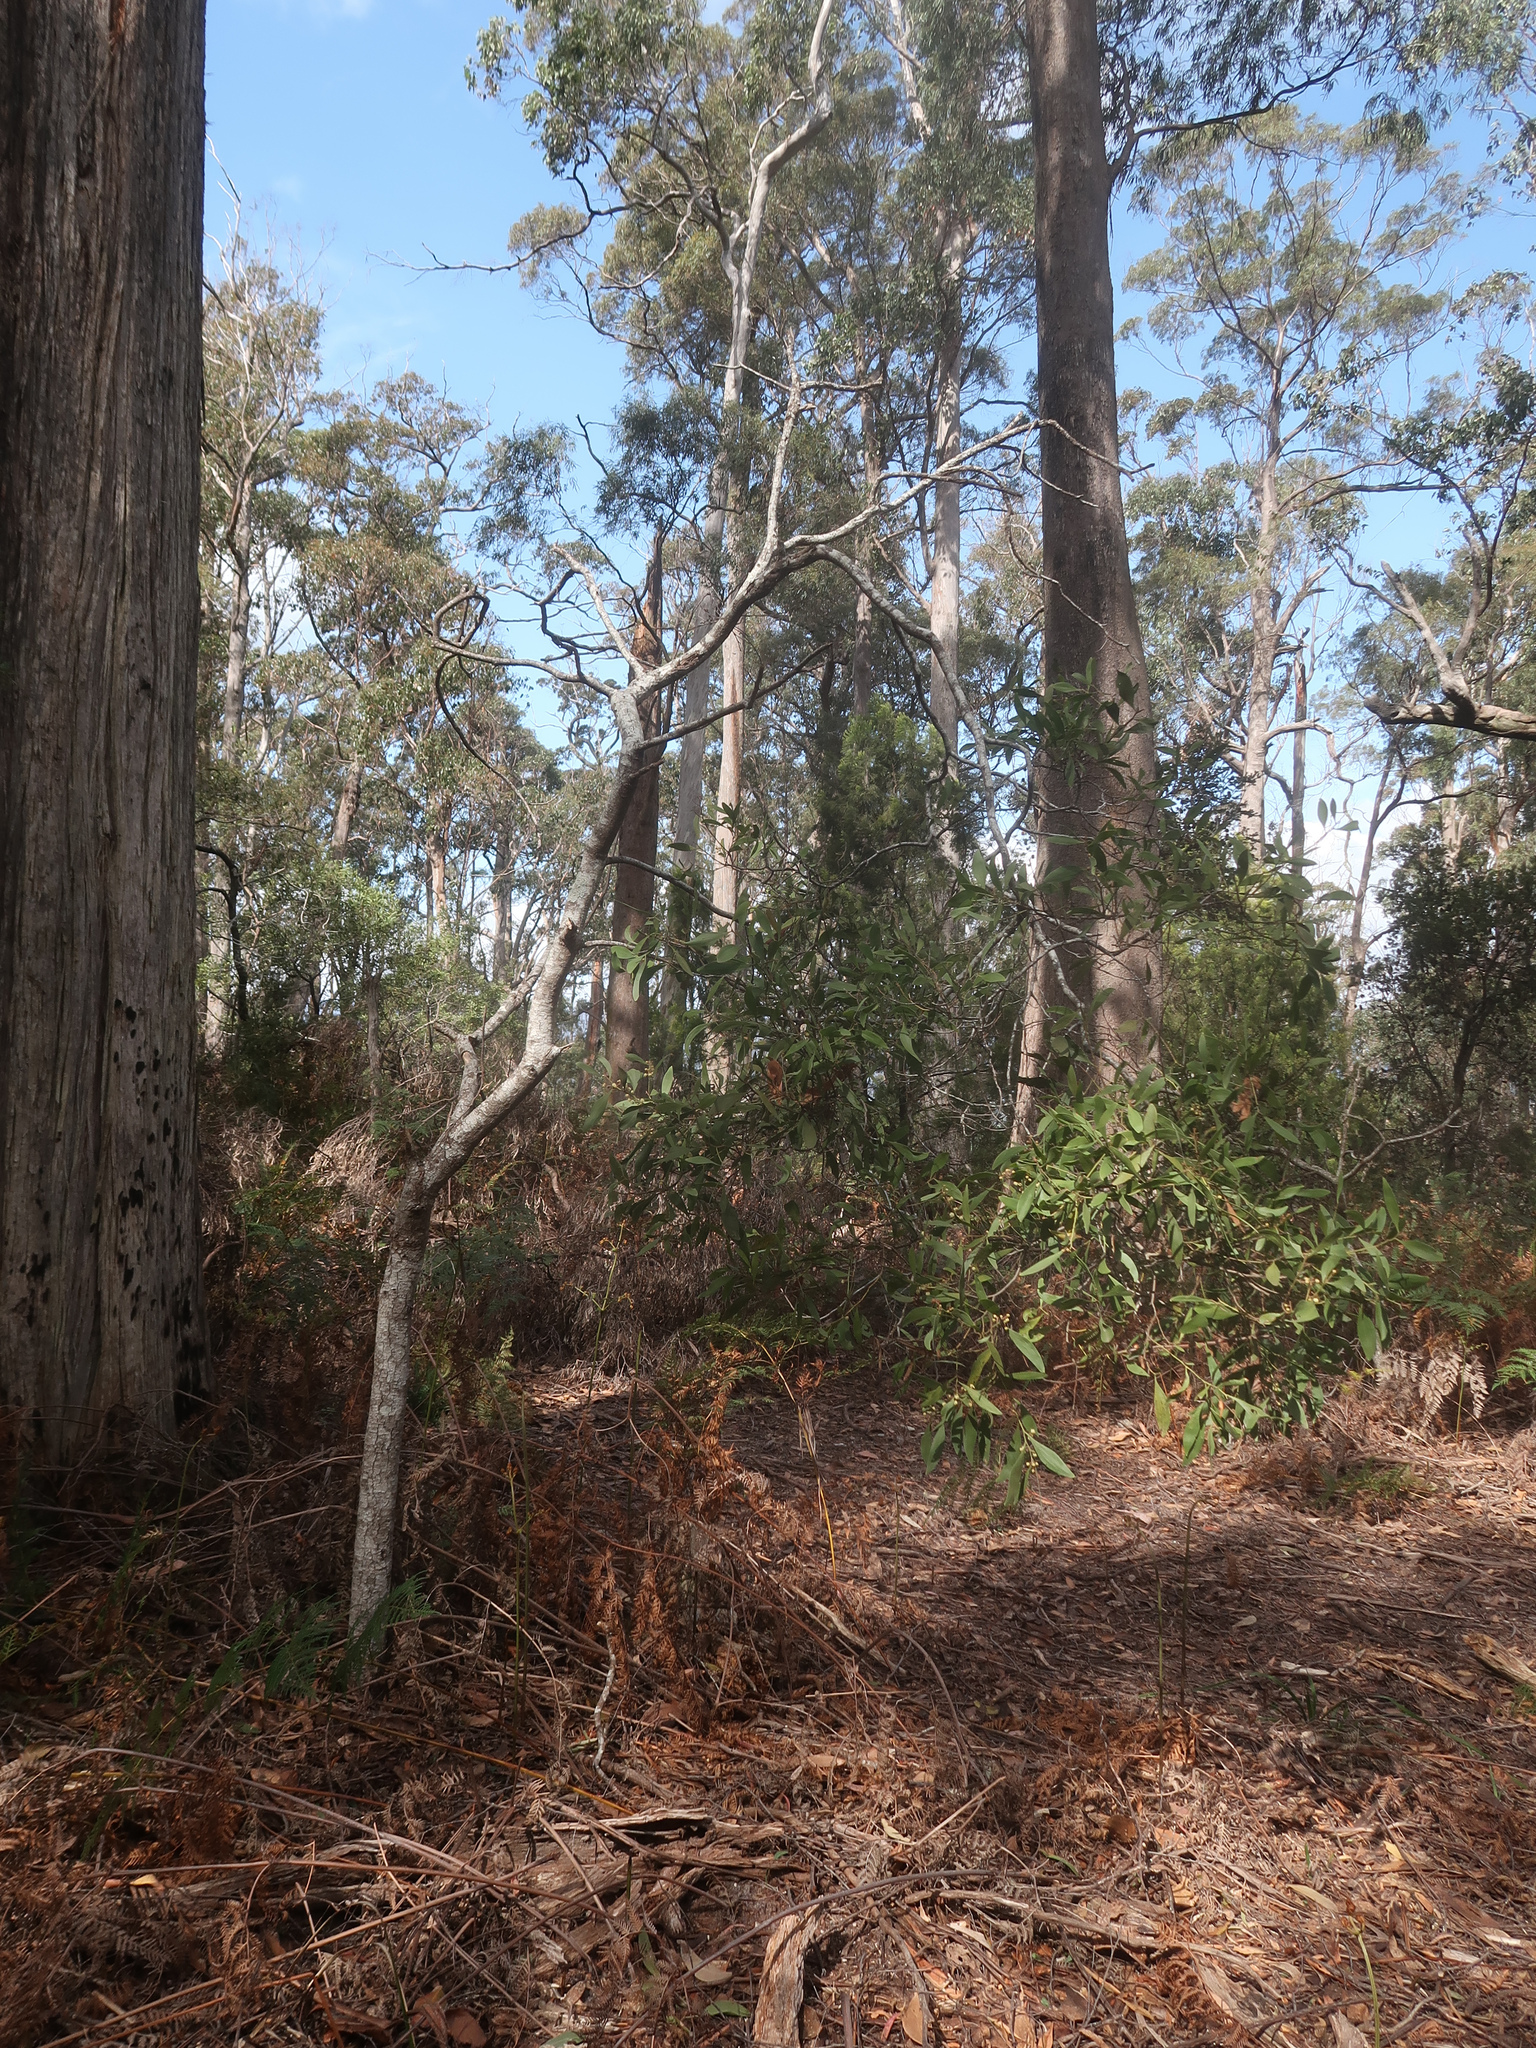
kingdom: Plantae
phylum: Tracheophyta
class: Magnoliopsida
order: Fabales
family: Fabaceae
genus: Acacia
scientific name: Acacia melanoxylon
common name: Blackwood
